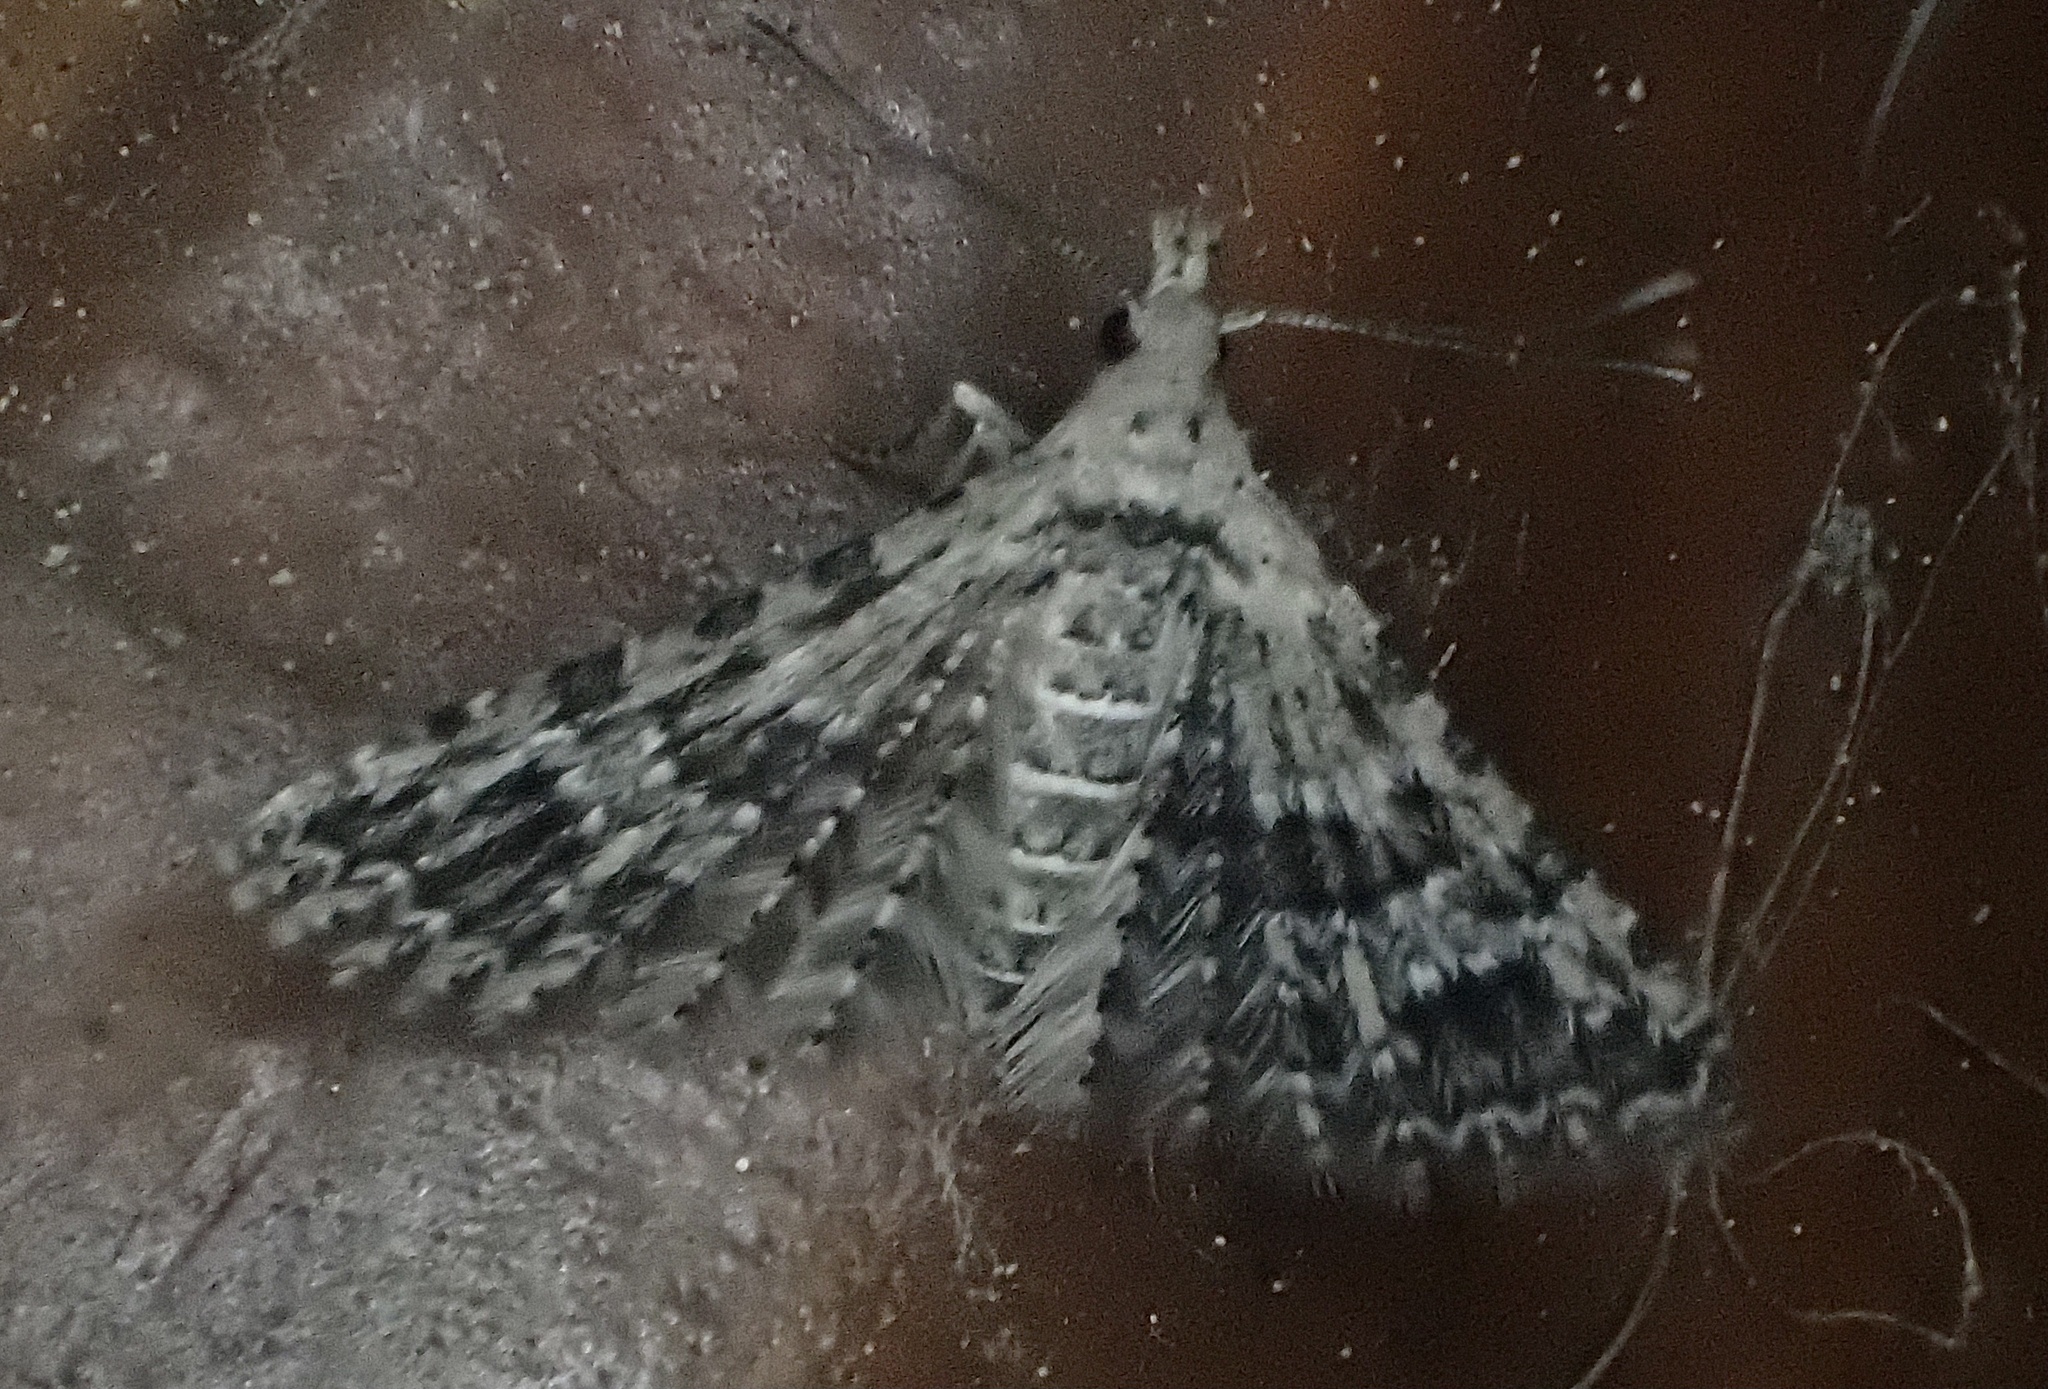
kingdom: Animalia
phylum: Arthropoda
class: Insecta
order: Lepidoptera
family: Alucitidae
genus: Alucita
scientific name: Alucita
